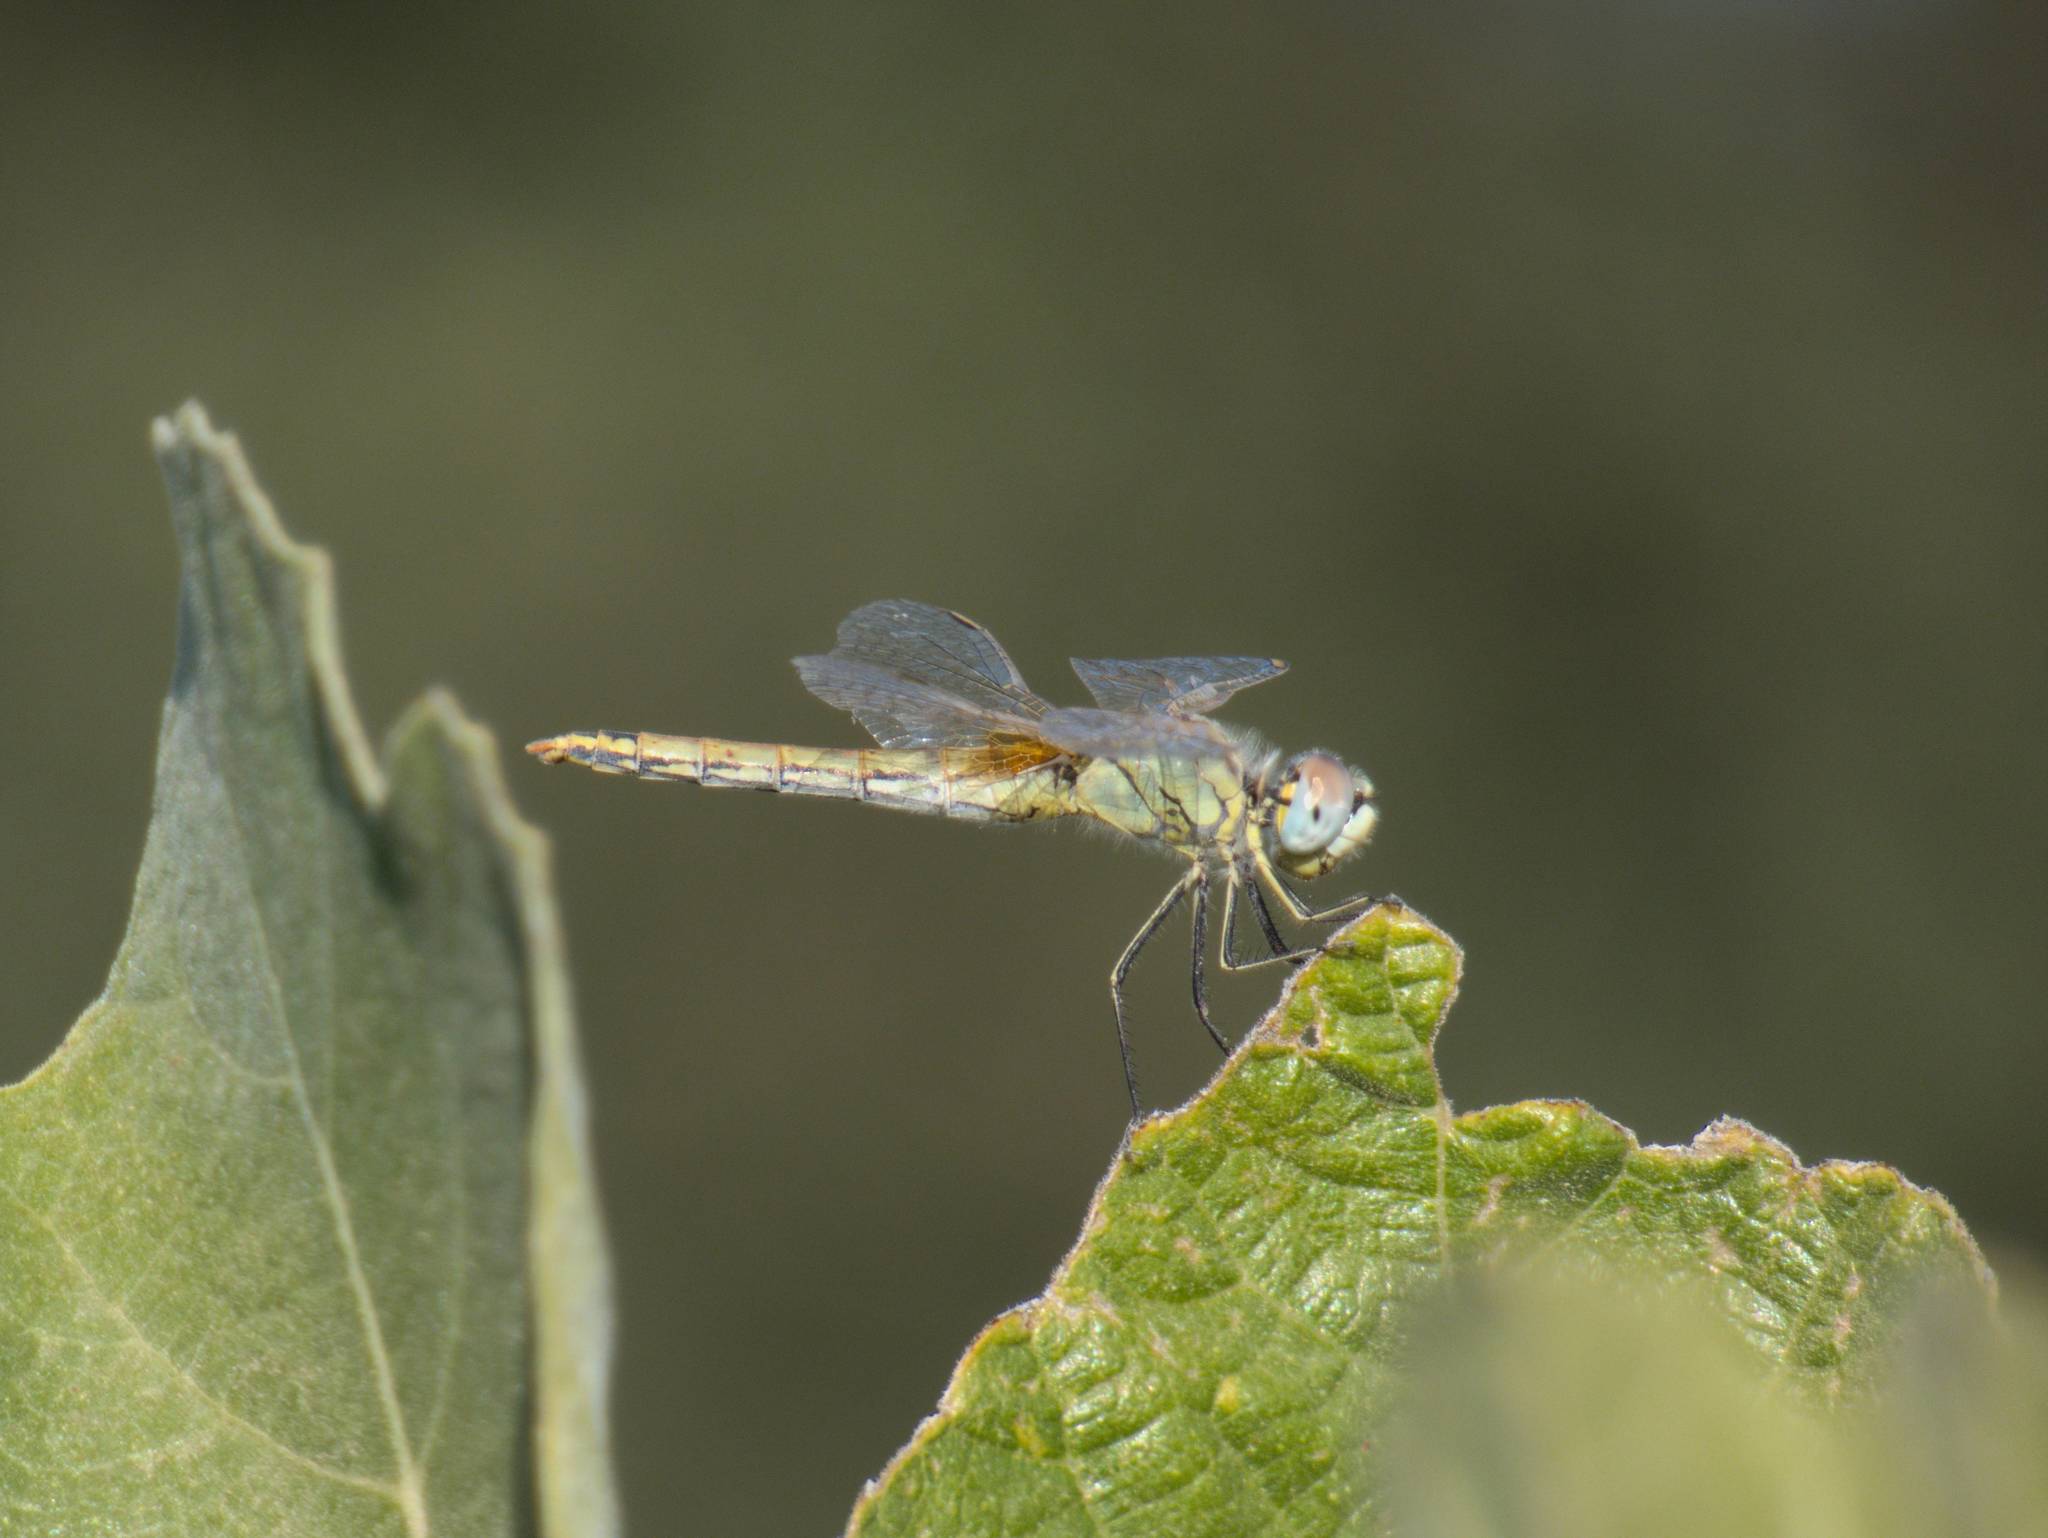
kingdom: Animalia
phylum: Arthropoda
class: Insecta
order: Odonata
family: Libellulidae
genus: Sympetrum
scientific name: Sympetrum fonscolombii
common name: Red-veined darter
